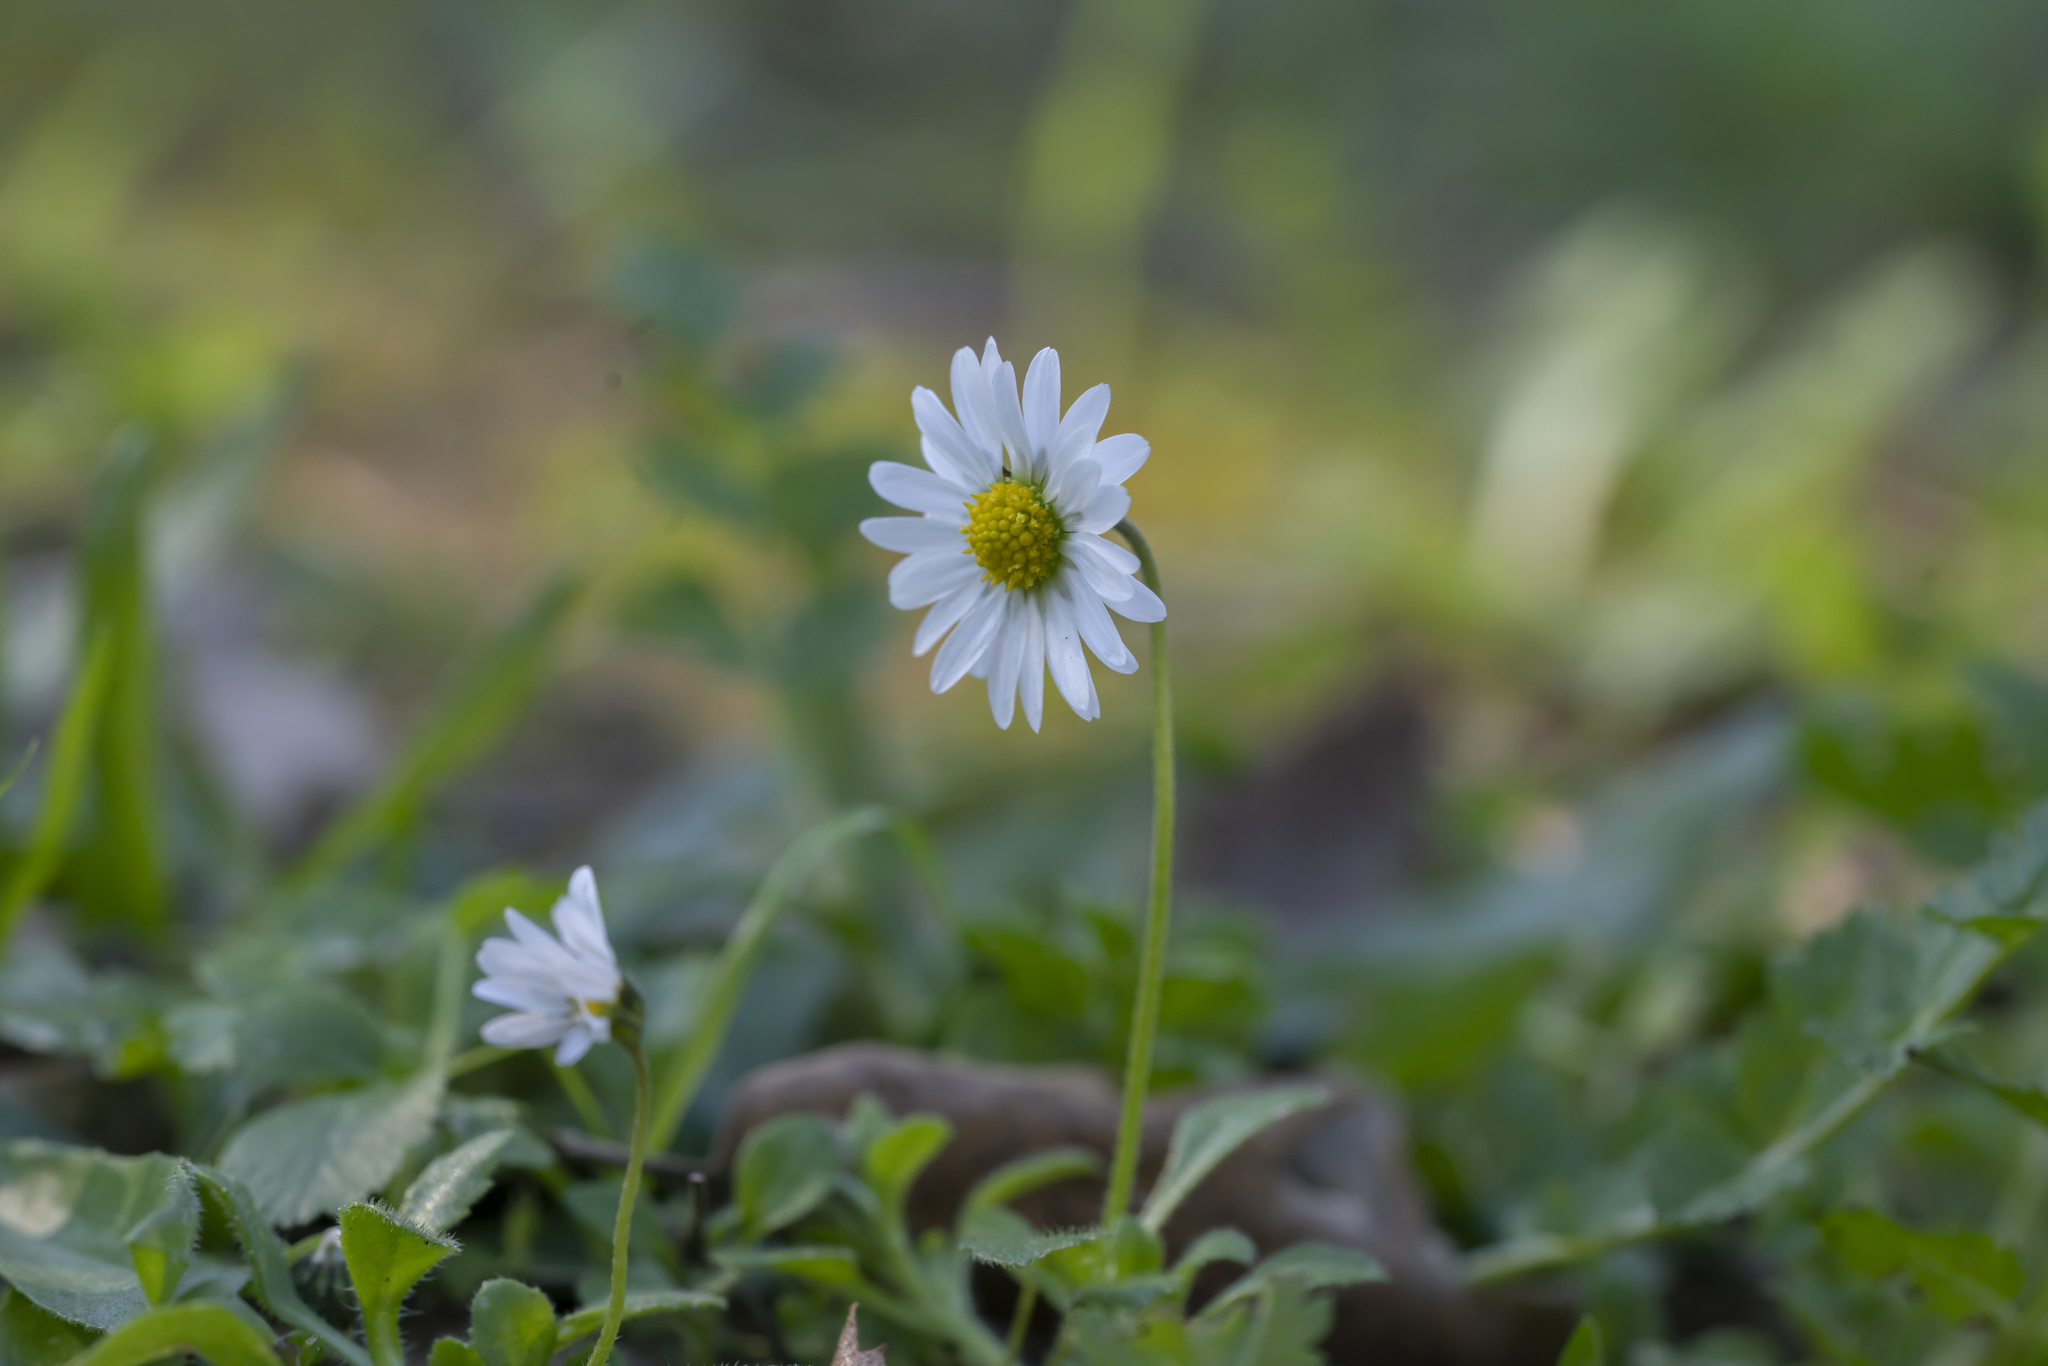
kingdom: Plantae
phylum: Tracheophyta
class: Magnoliopsida
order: Asterales
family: Asteraceae
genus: Bellis
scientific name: Bellis annua
